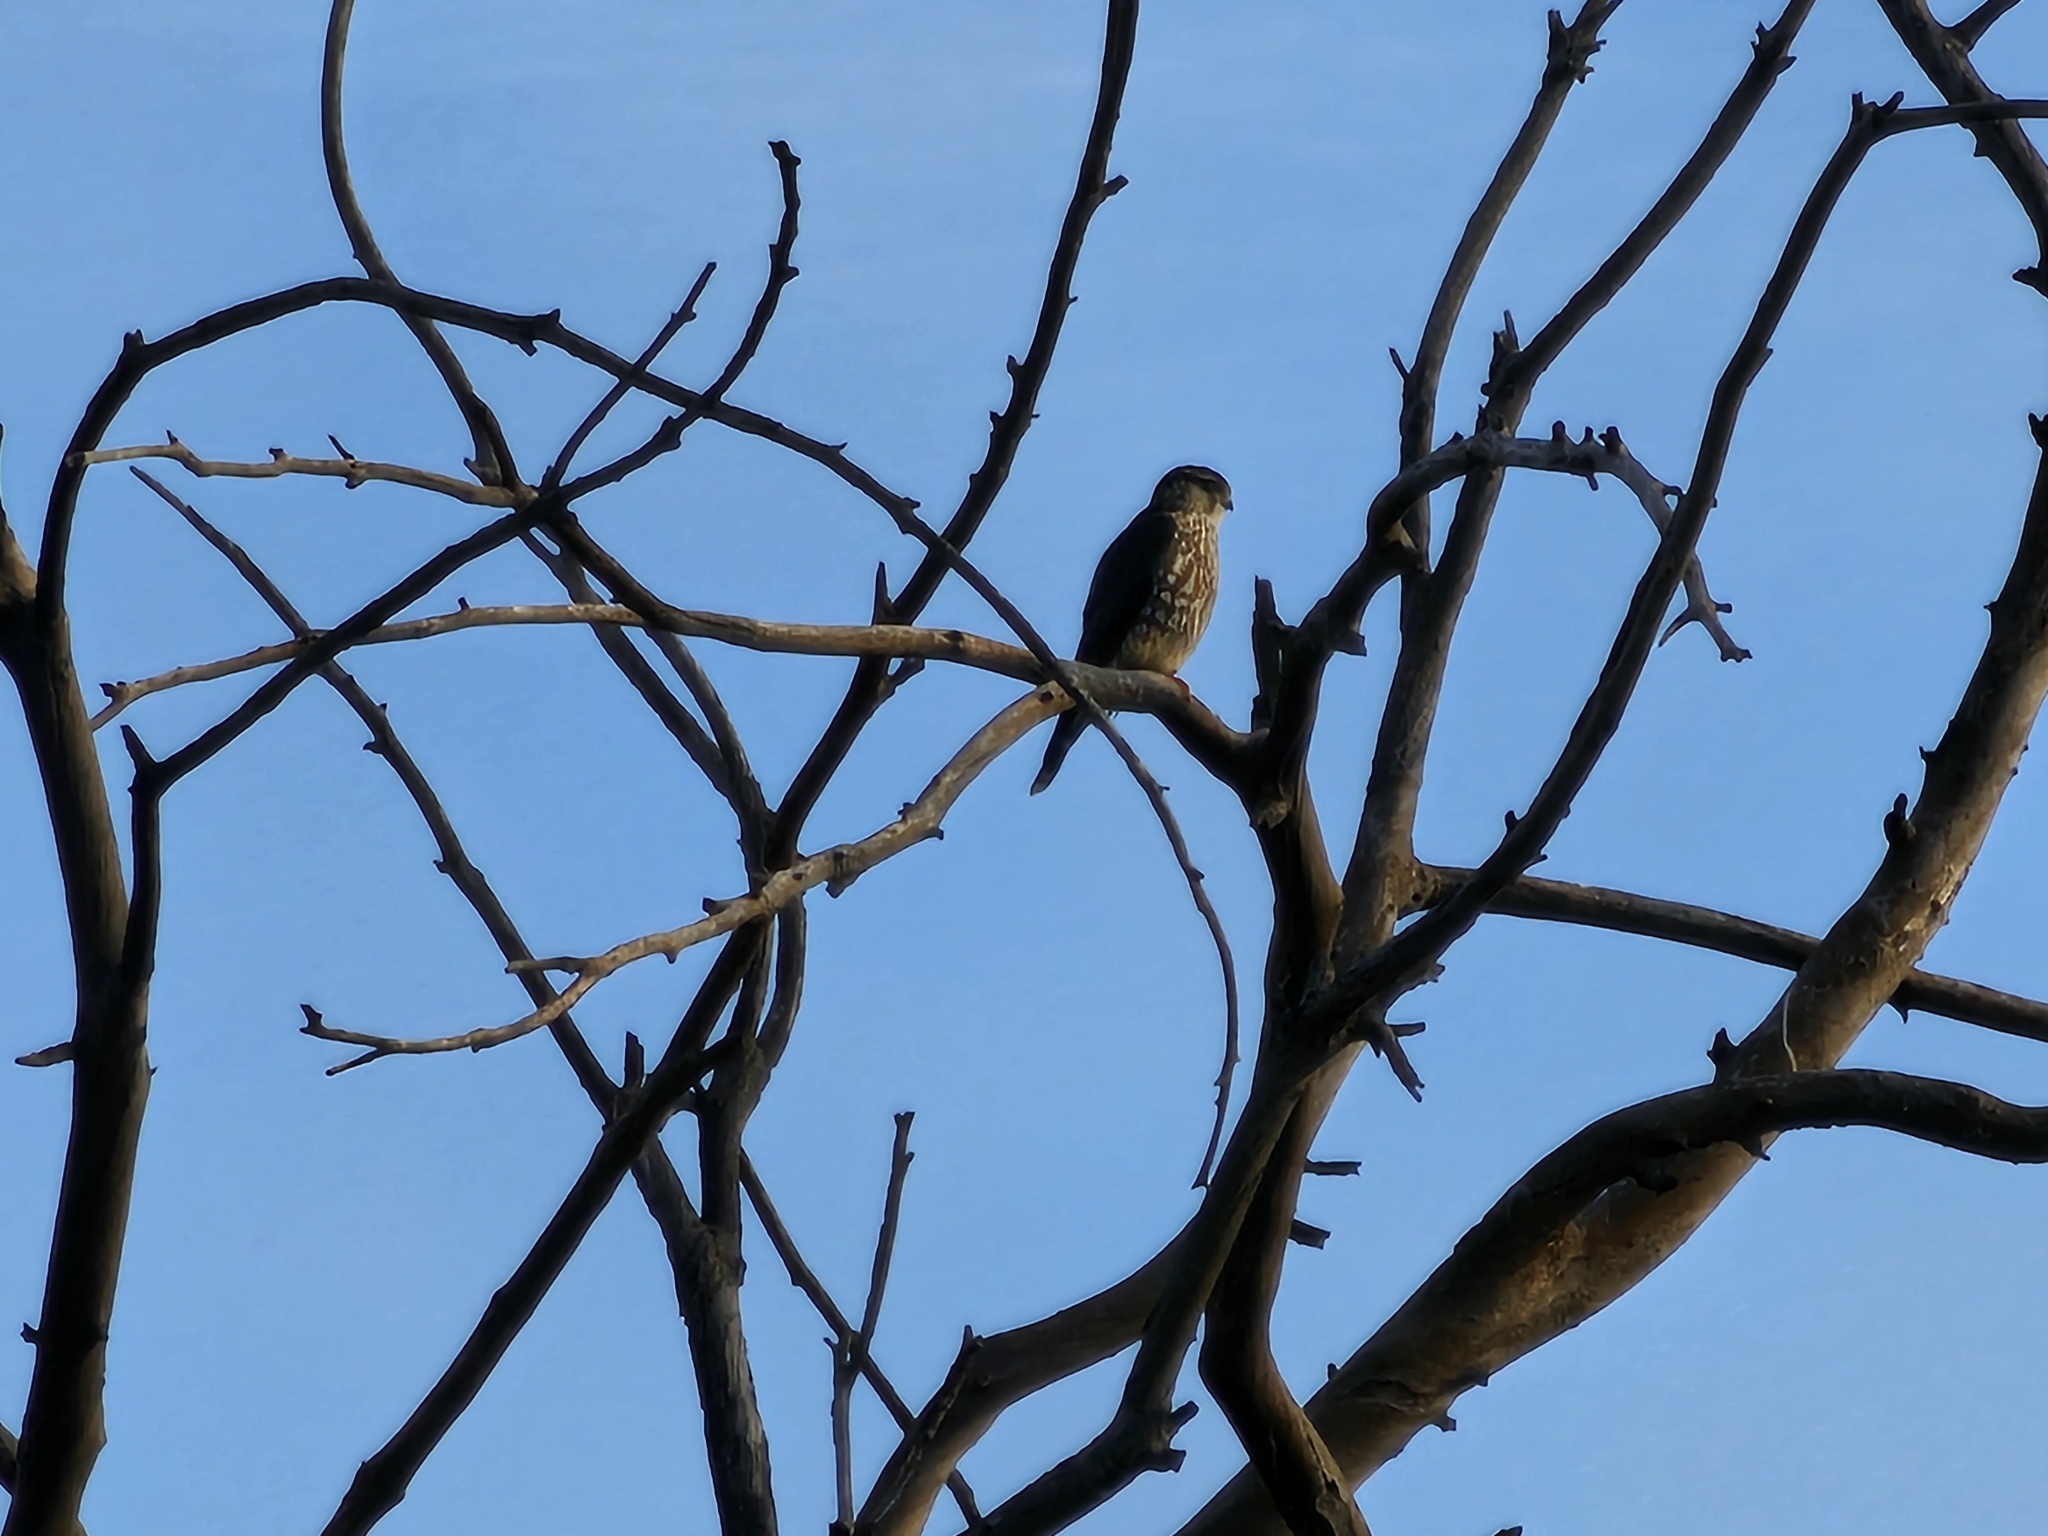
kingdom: Animalia
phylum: Chordata
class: Aves
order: Falconiformes
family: Falconidae
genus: Falco
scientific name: Falco columbarius
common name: Merlin
